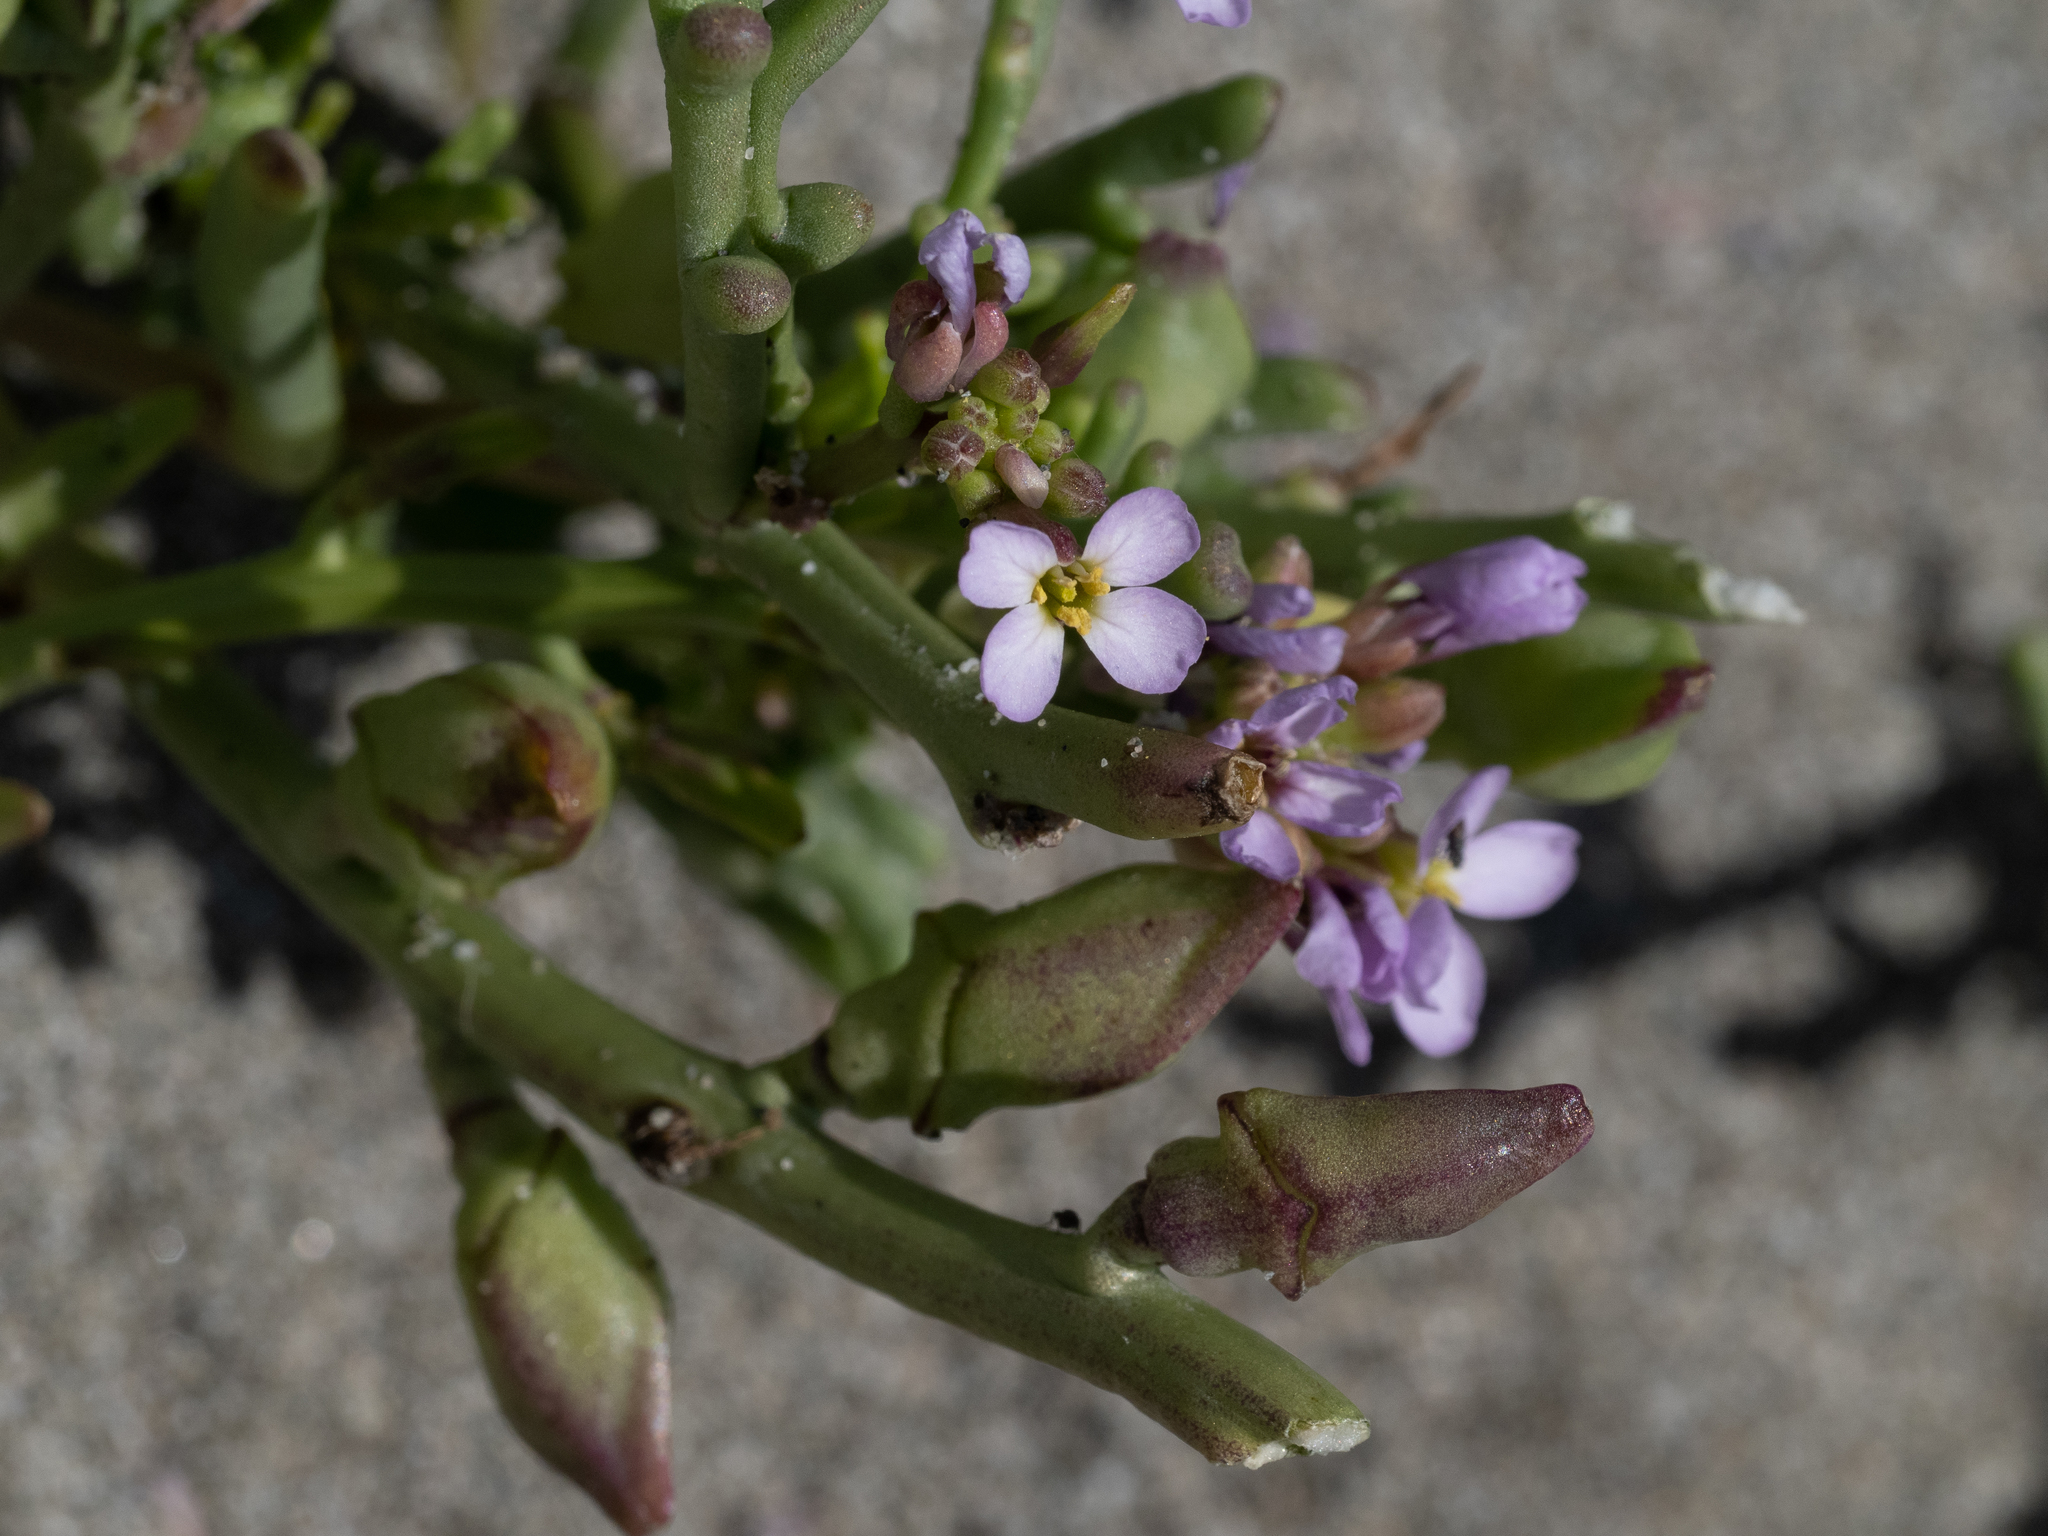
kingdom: Plantae
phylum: Tracheophyta
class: Magnoliopsida
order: Brassicales
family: Brassicaceae
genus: Cakile
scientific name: Cakile maritima
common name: Sea rocket
